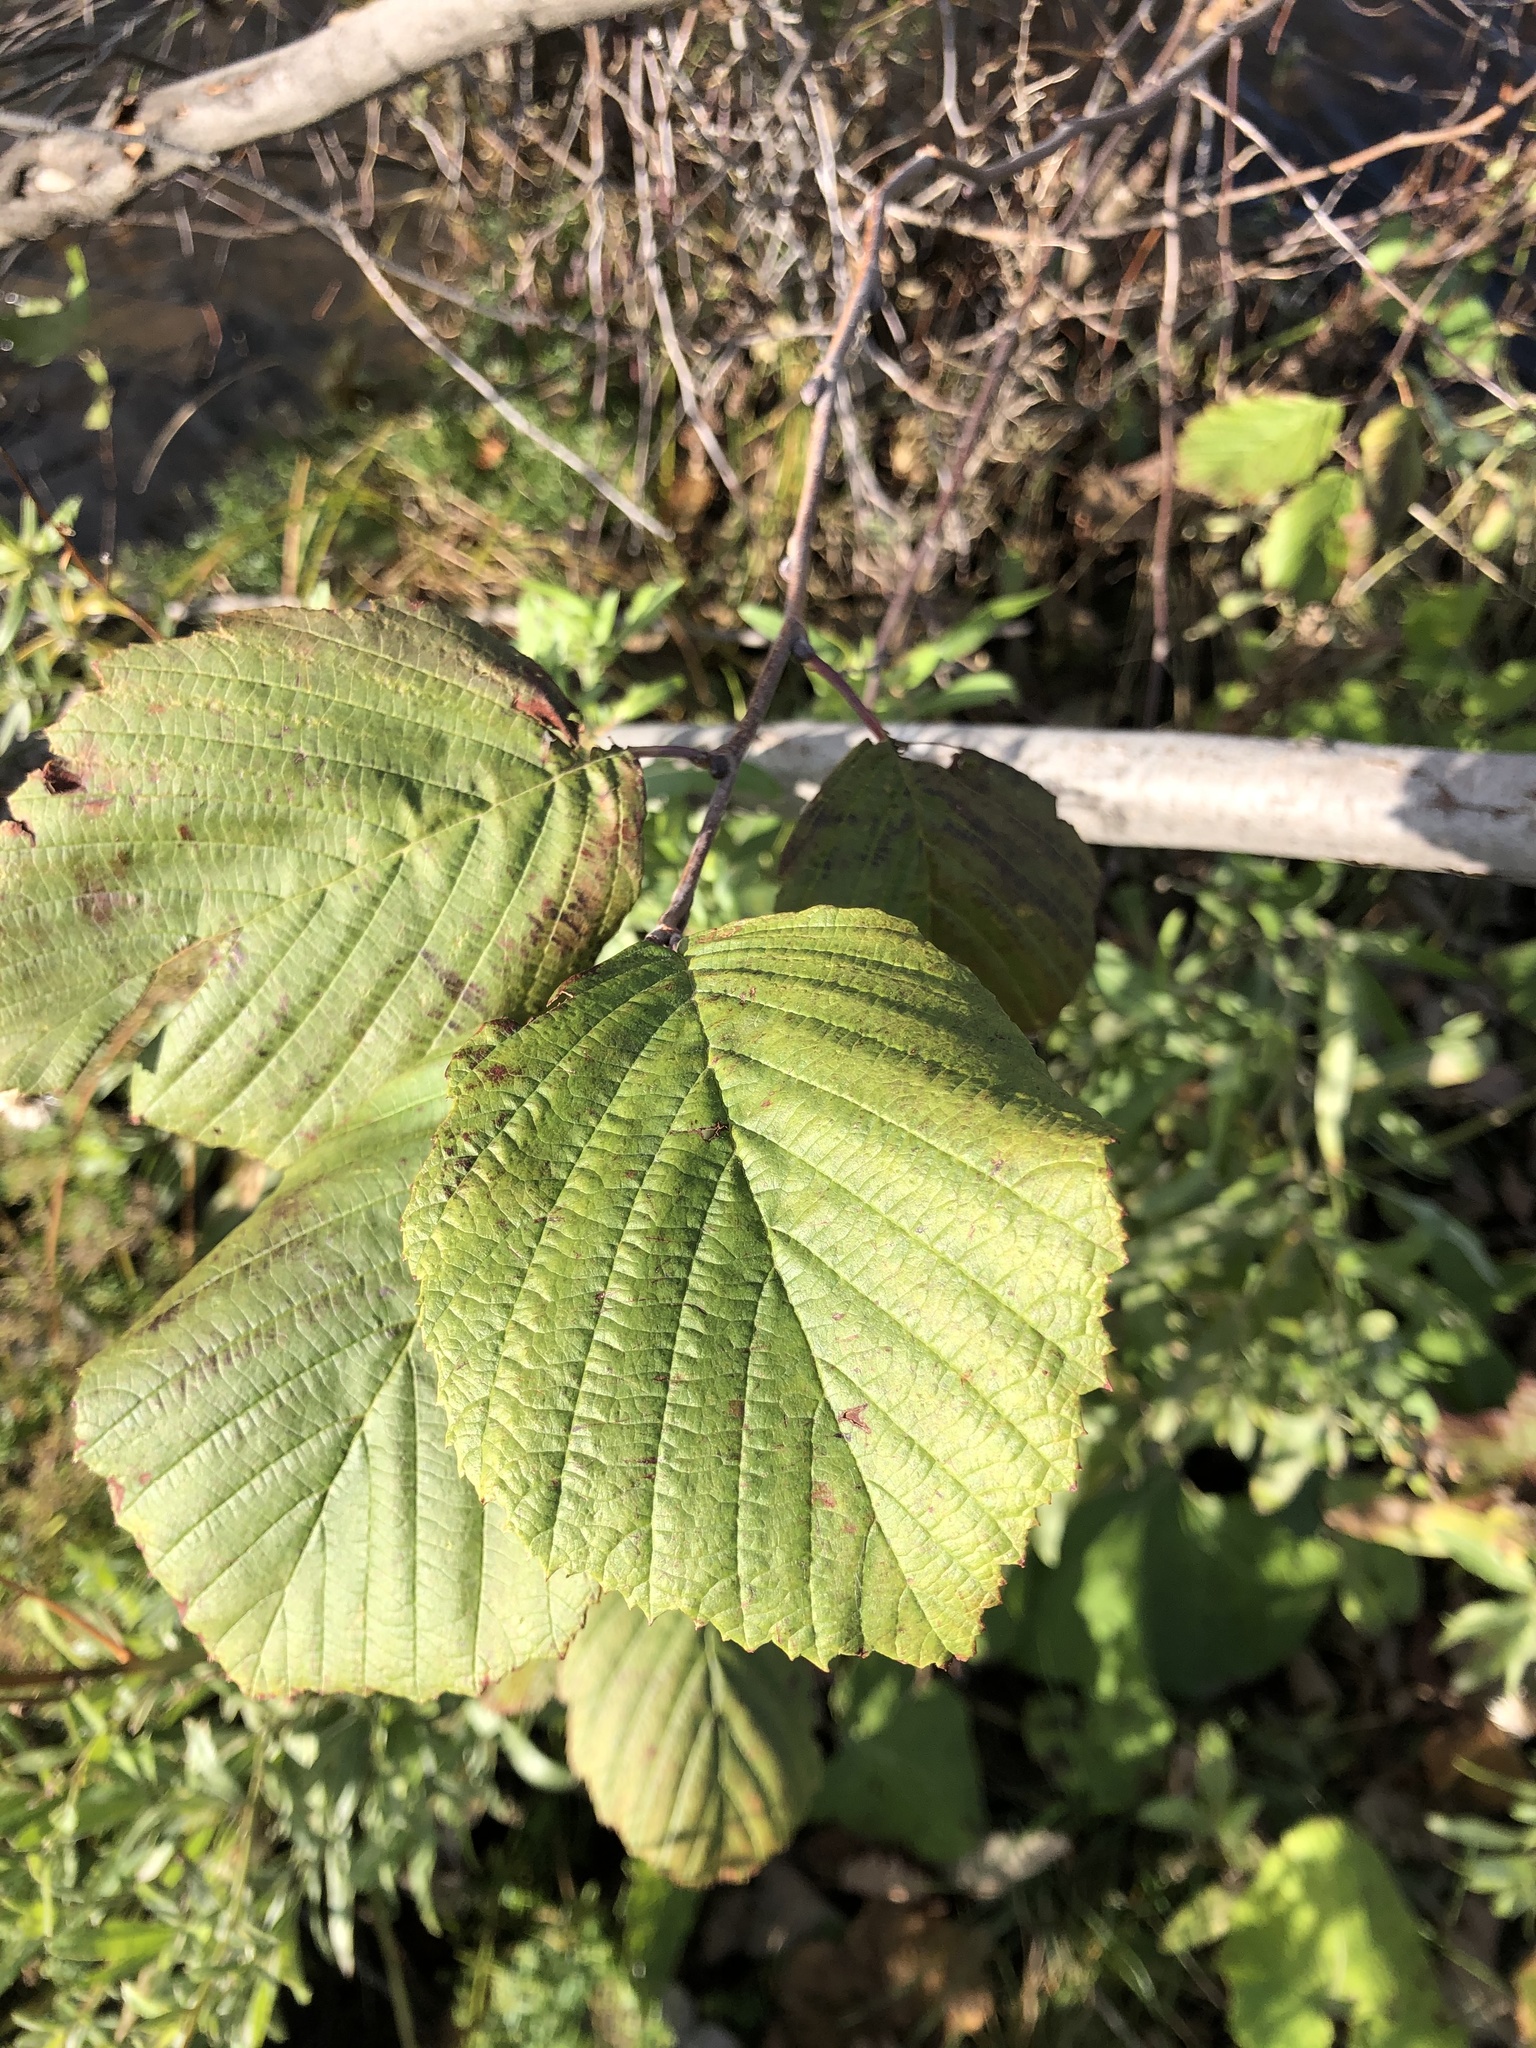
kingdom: Plantae
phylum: Tracheophyta
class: Magnoliopsida
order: Fagales
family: Betulaceae
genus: Alnus
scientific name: Alnus incana
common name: Grey alder
